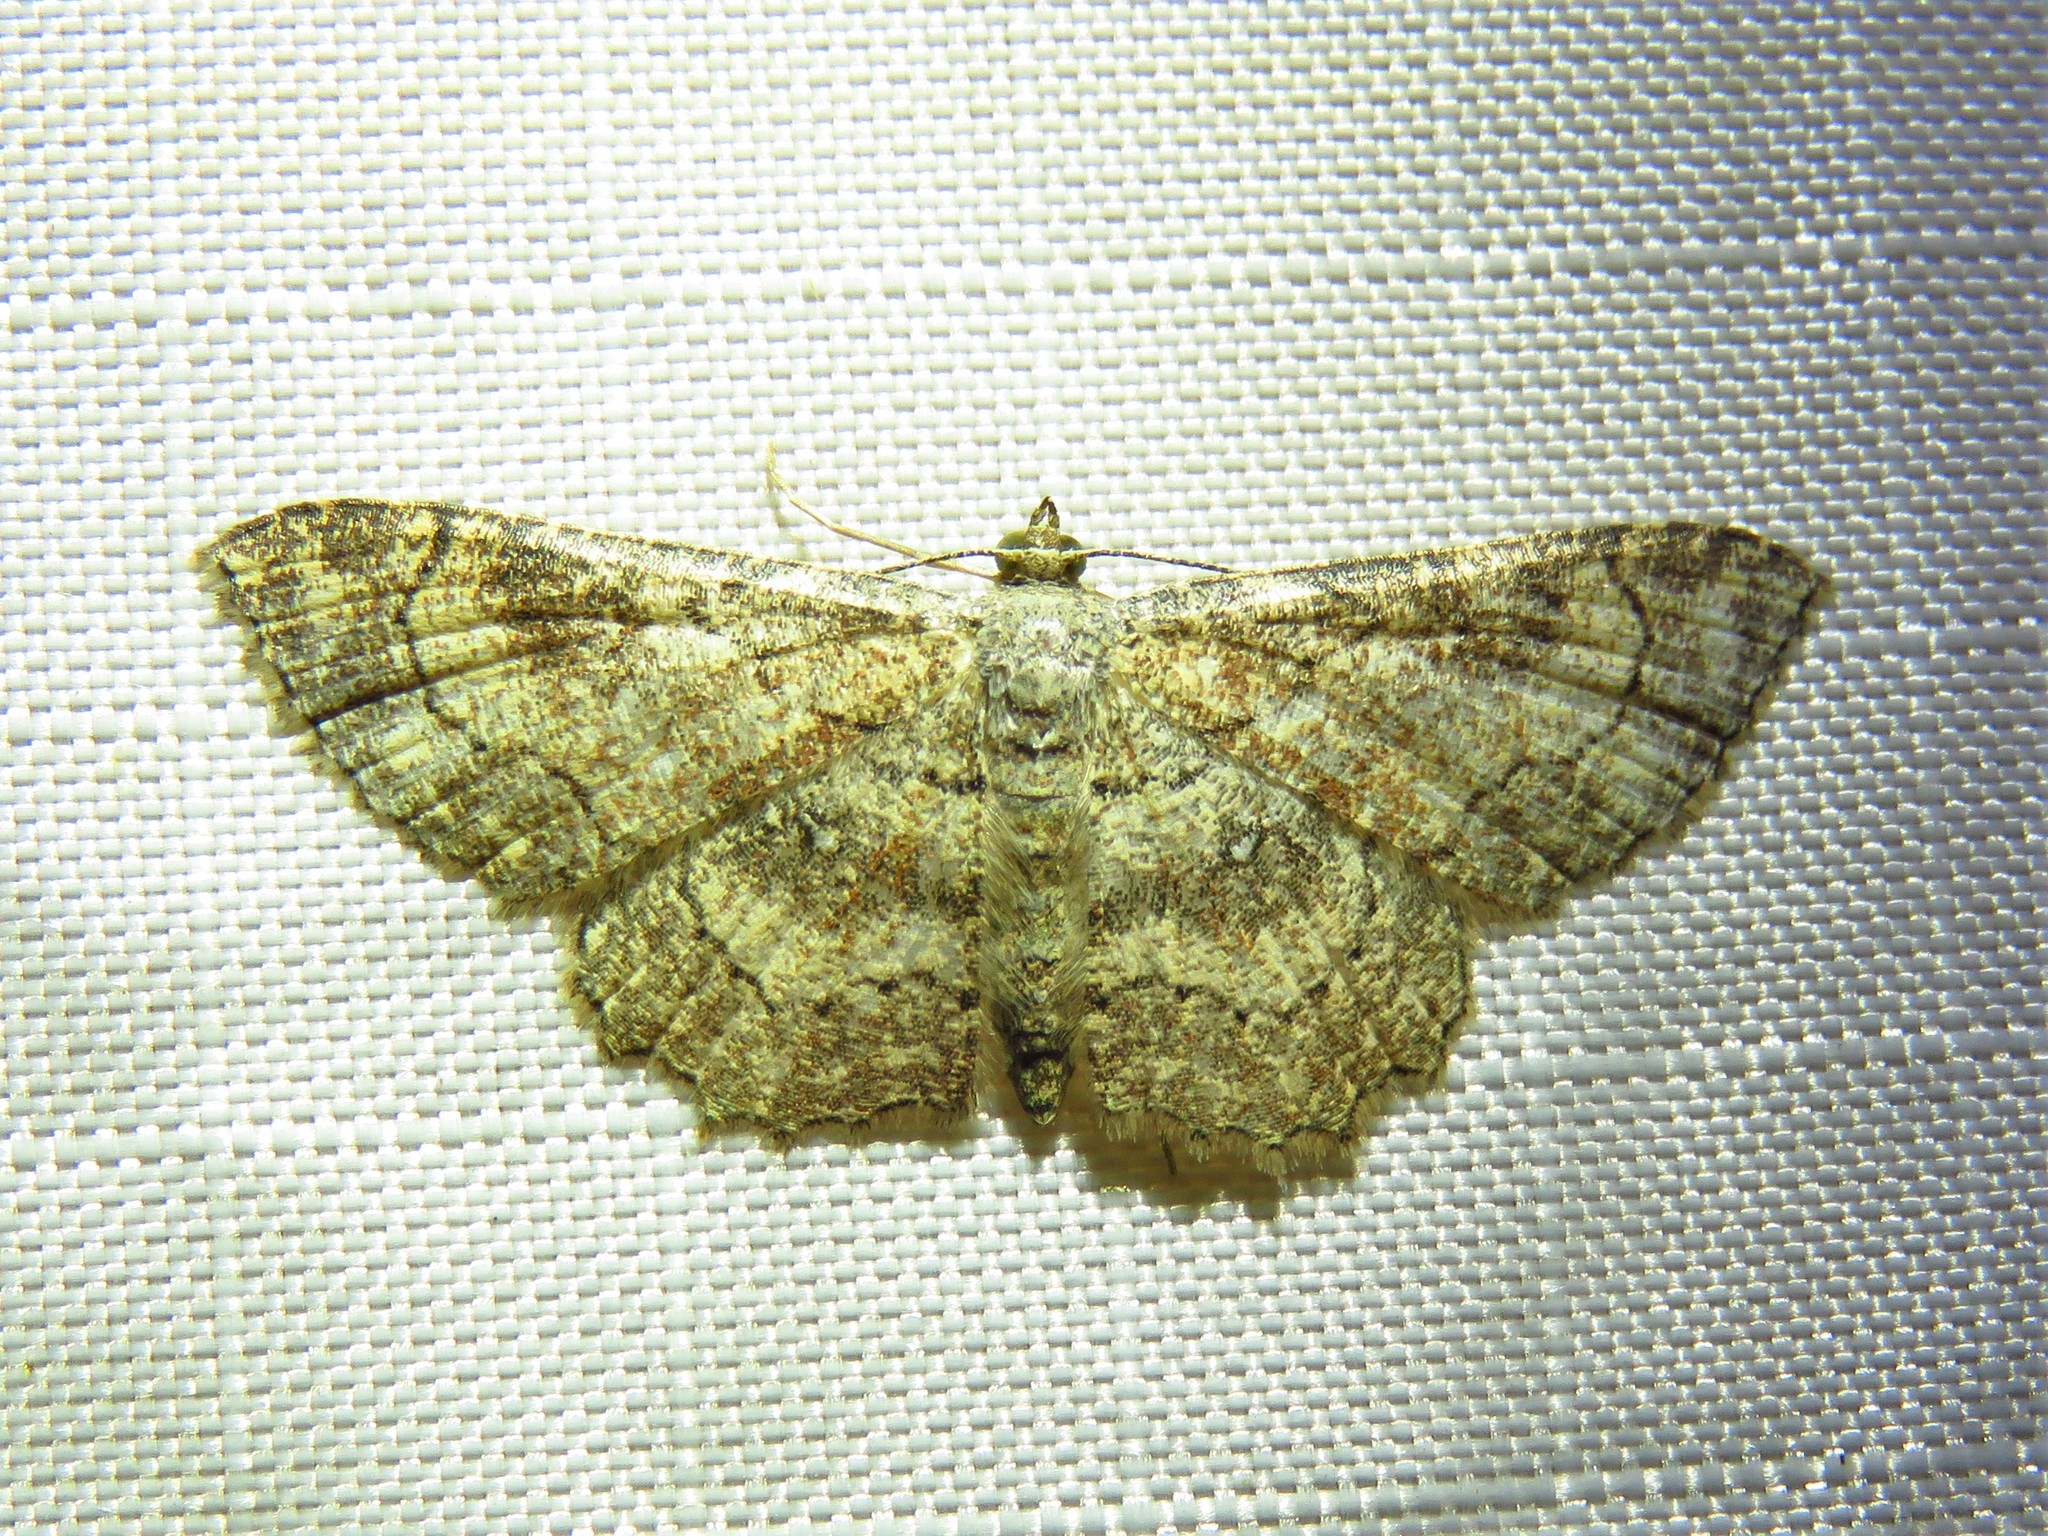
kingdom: Animalia
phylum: Arthropoda
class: Insecta
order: Lepidoptera
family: Geometridae
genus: Cyclophora
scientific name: Cyclophora nanaria
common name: Cankerworm
